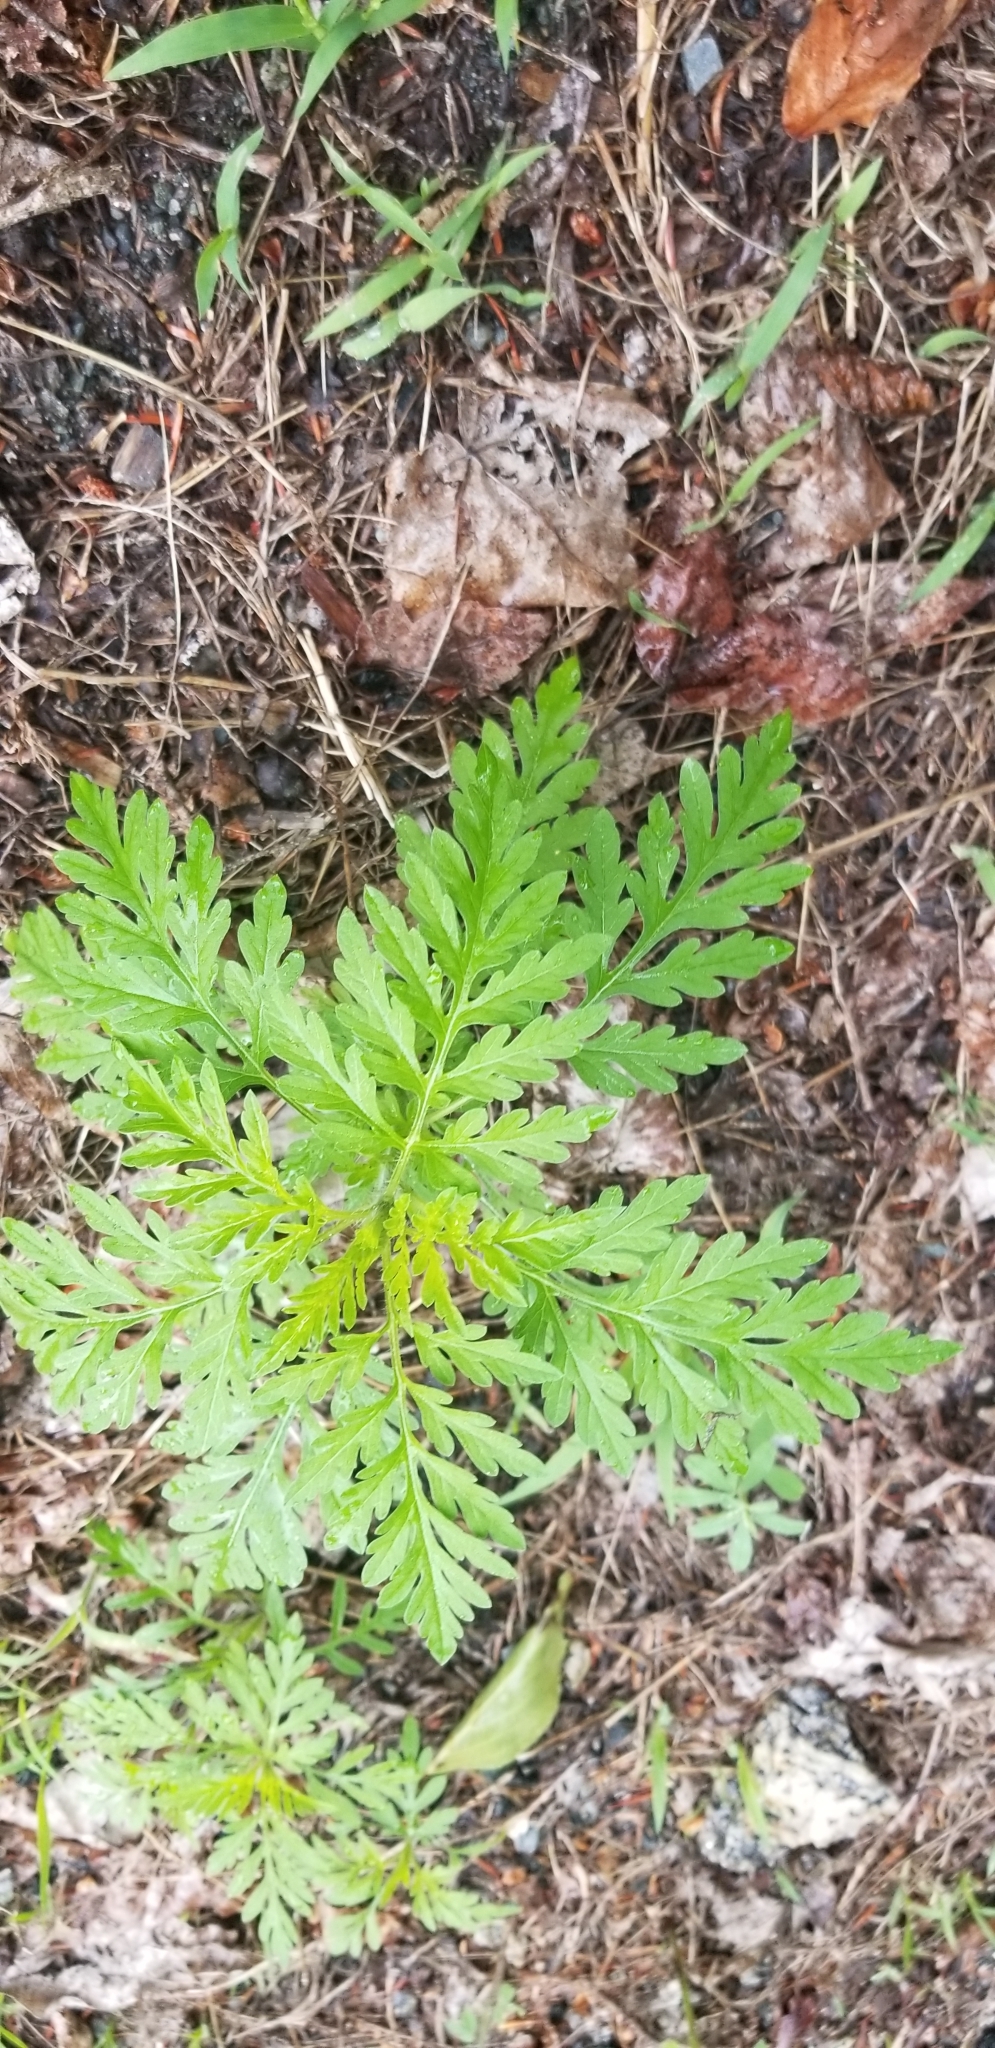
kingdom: Plantae
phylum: Tracheophyta
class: Magnoliopsida
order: Asterales
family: Asteraceae
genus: Ambrosia
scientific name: Ambrosia artemisiifolia
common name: Annual ragweed
